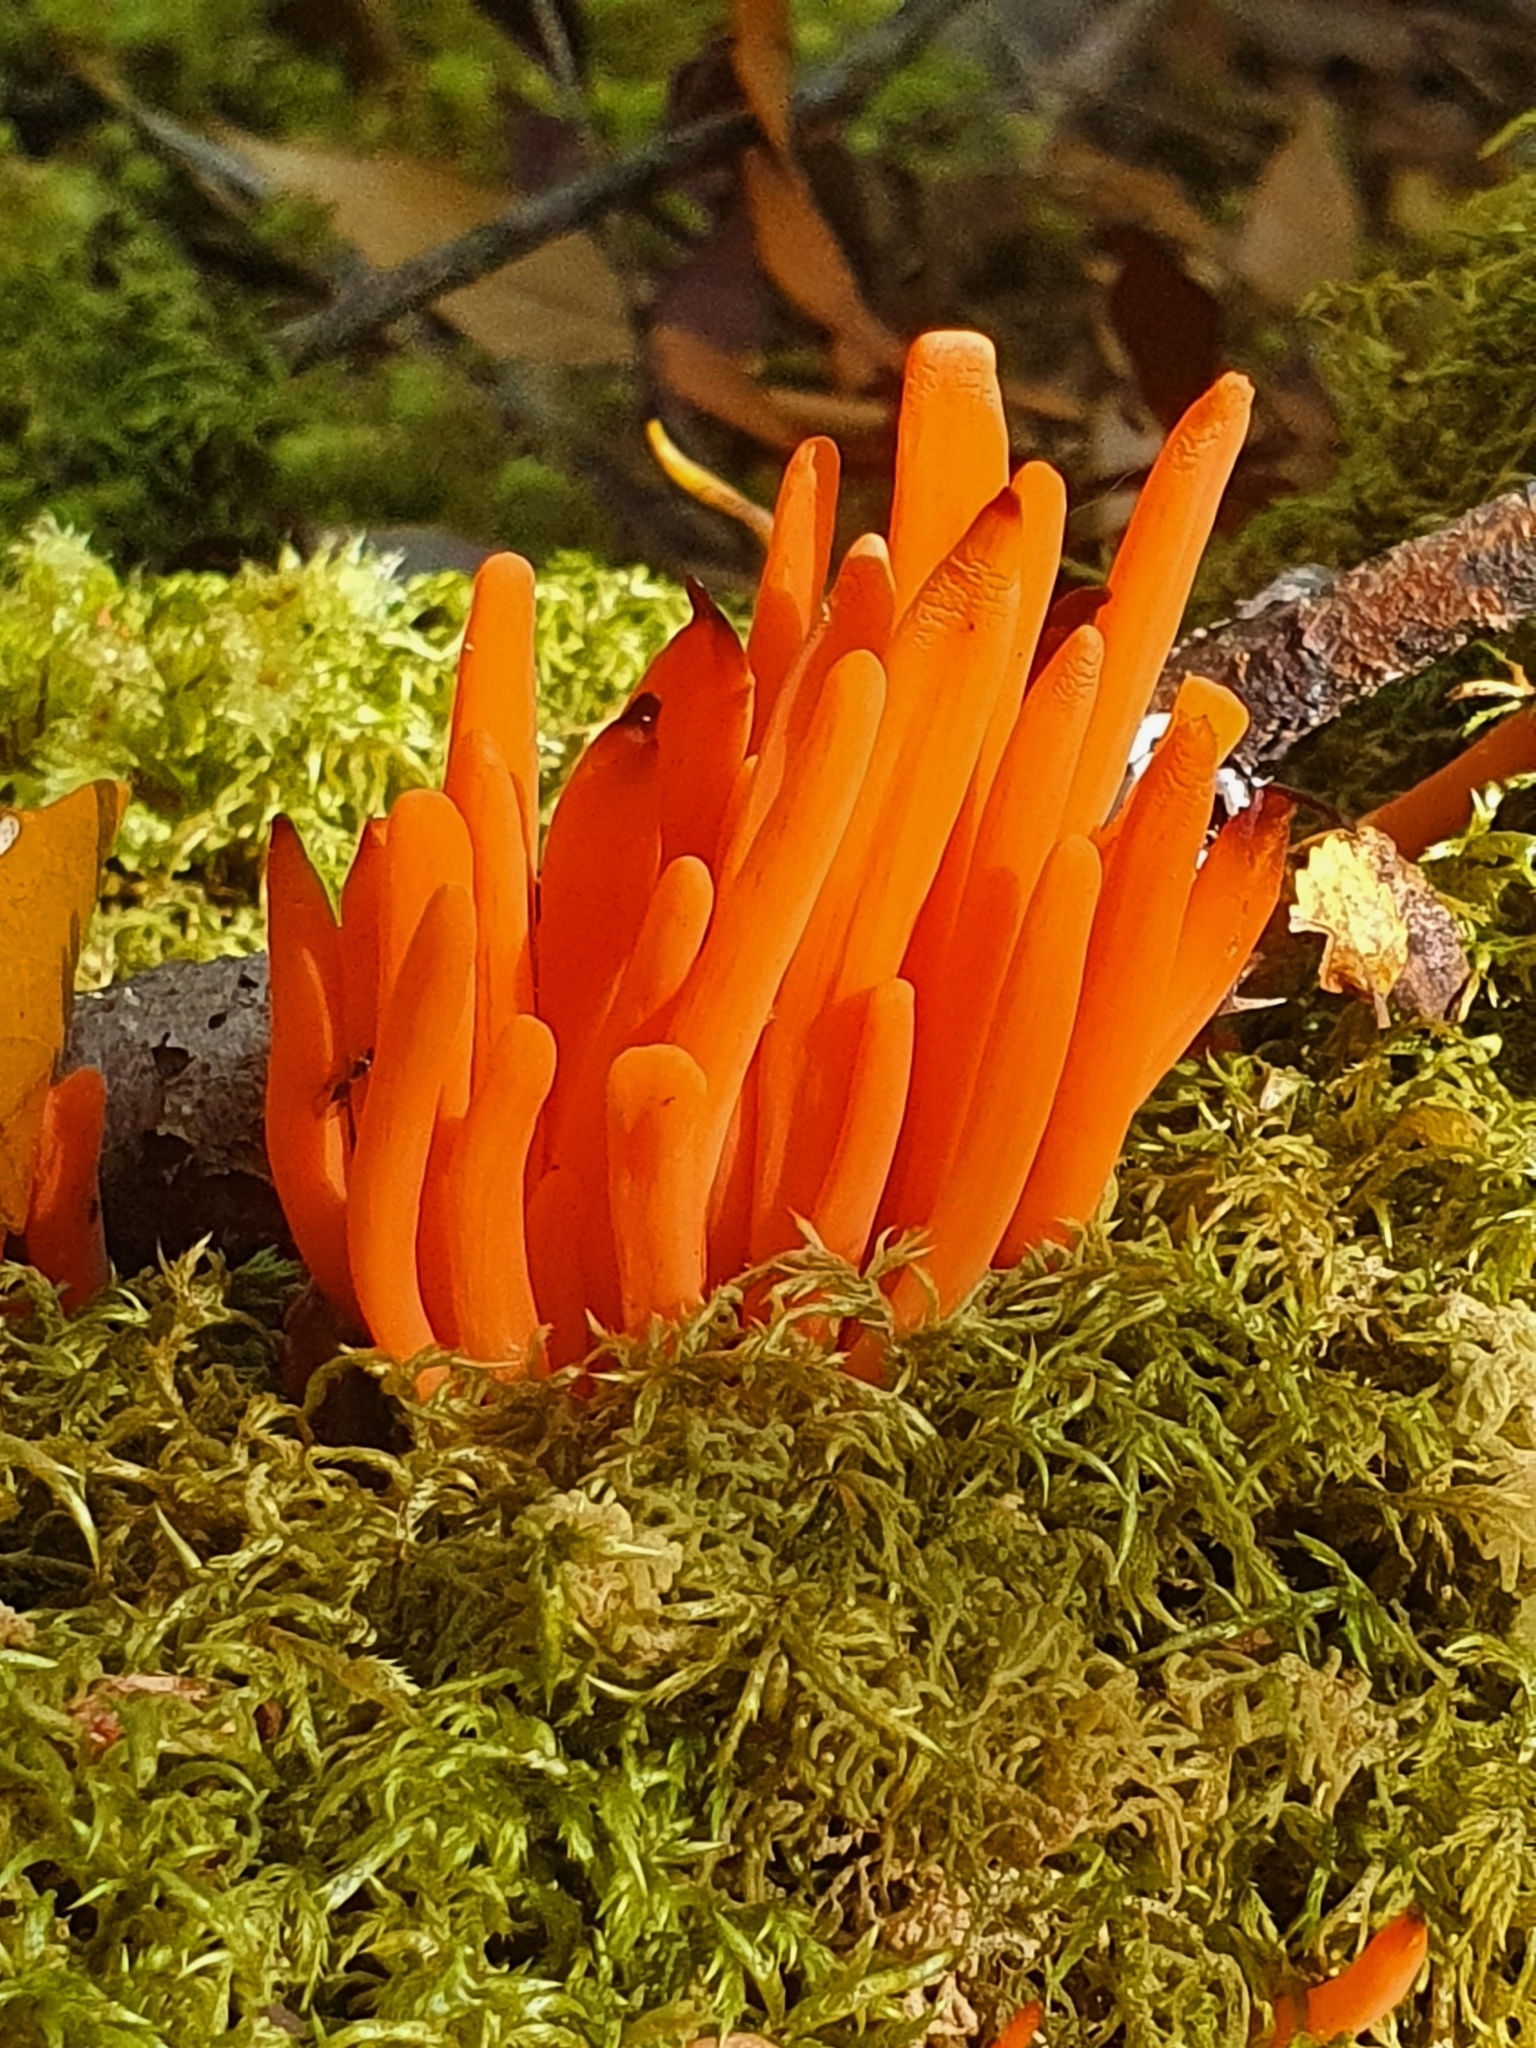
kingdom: Fungi
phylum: Basidiomycota
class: Agaricomycetes
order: Agaricales
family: Clavariaceae
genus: Clavulinopsis
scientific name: Clavulinopsis sulcata
